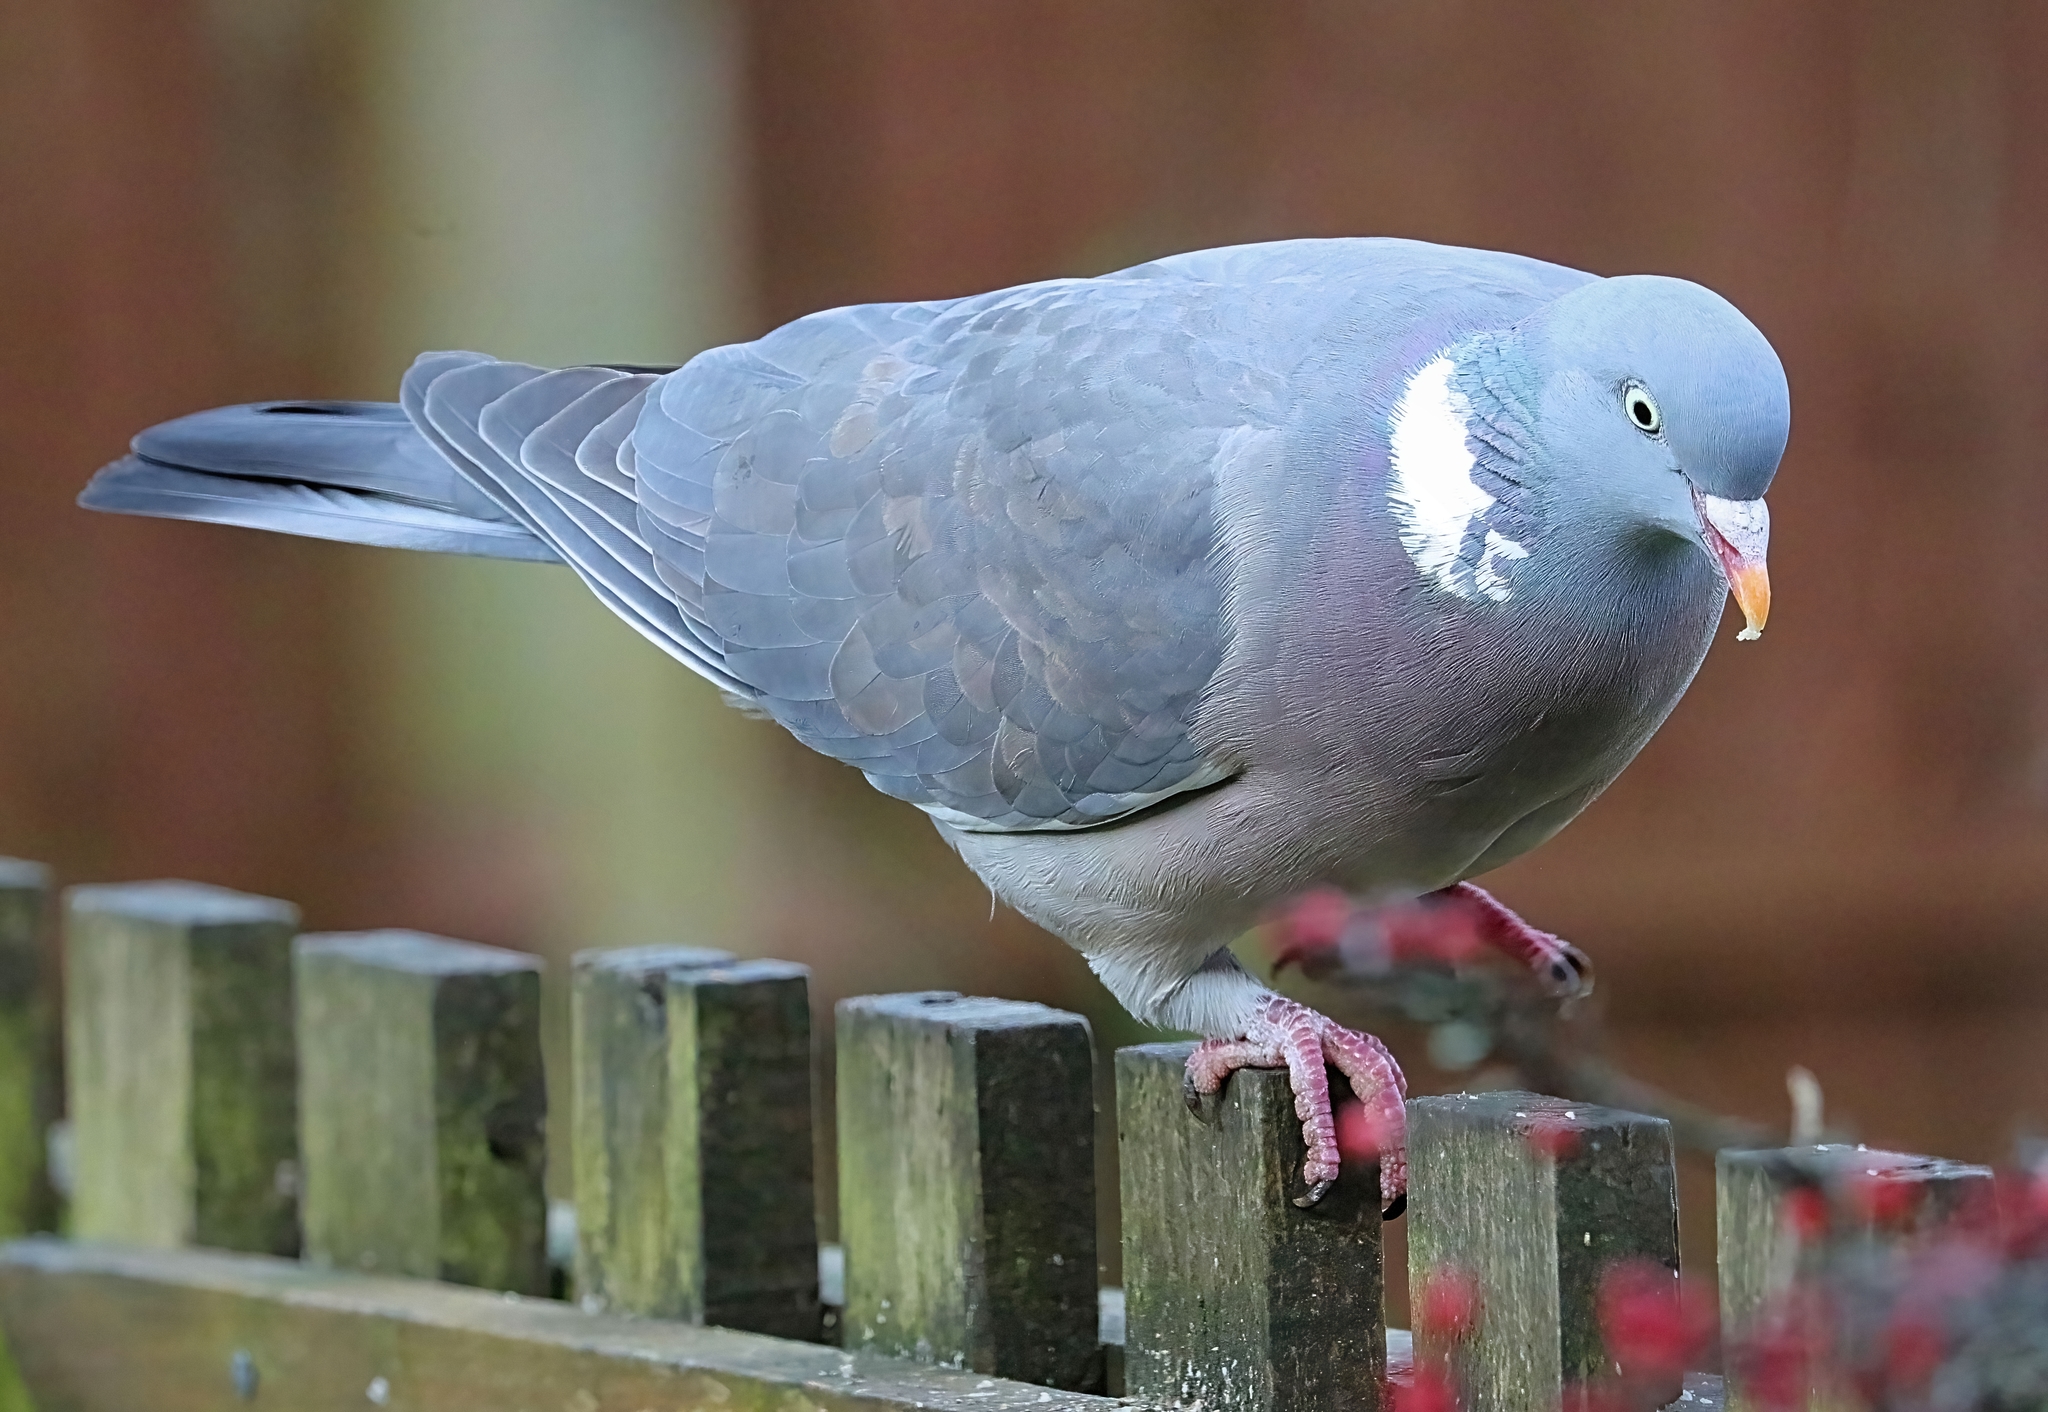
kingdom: Animalia
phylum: Chordata
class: Aves
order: Columbiformes
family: Columbidae
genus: Columba
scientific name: Columba palumbus
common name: Common wood pigeon
